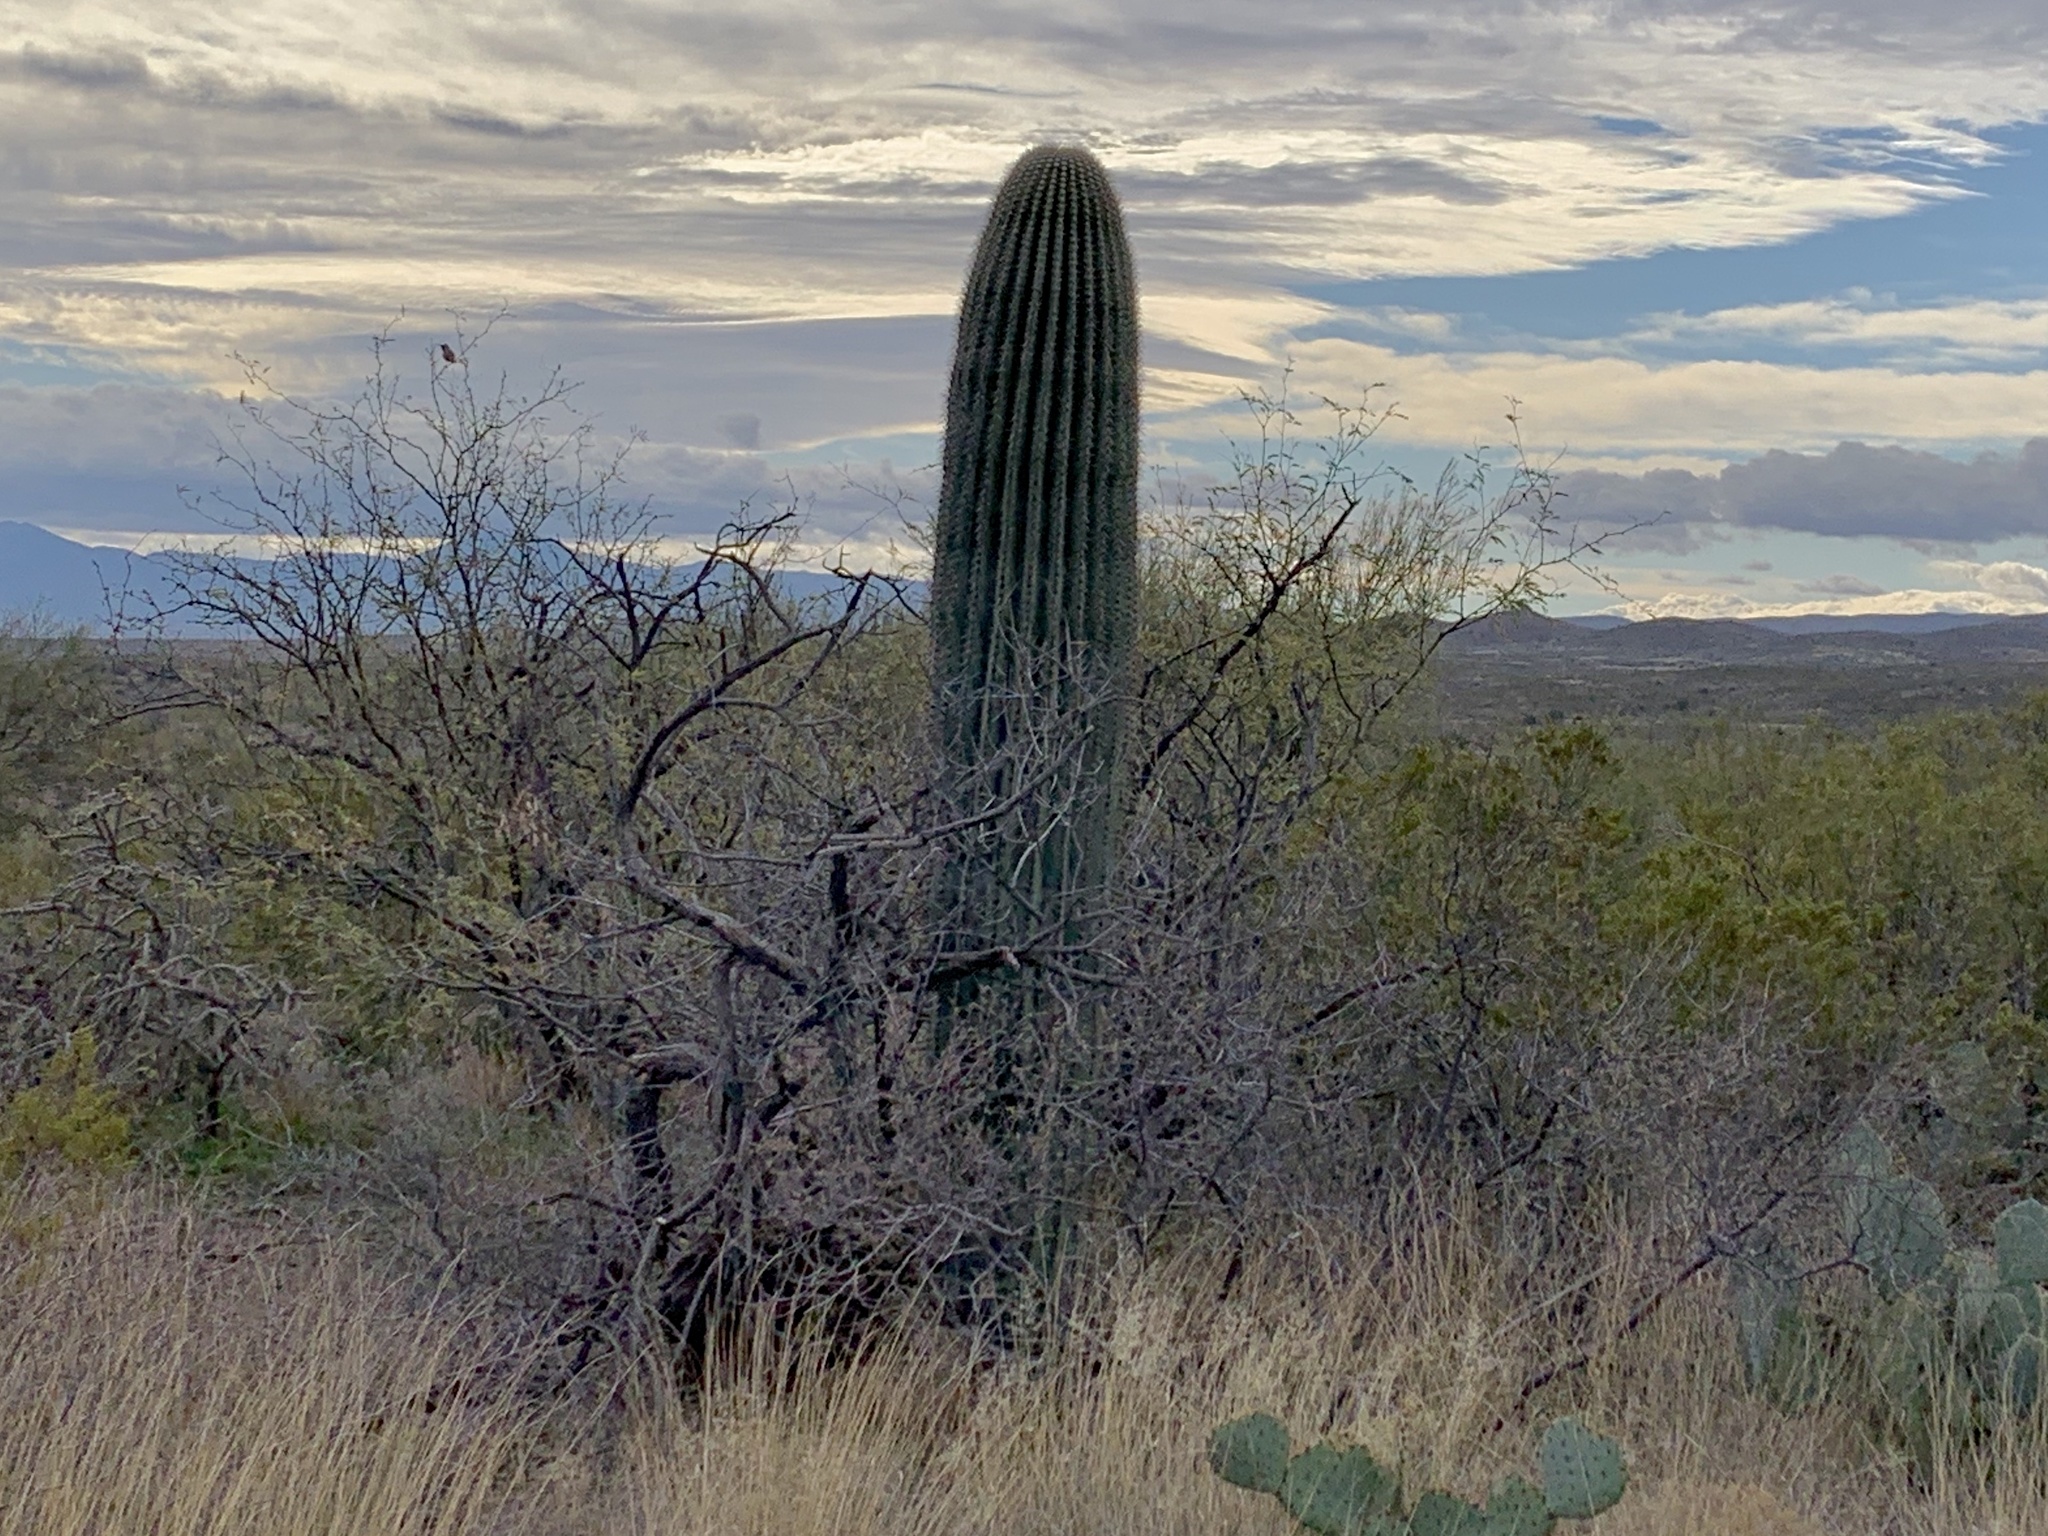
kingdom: Plantae
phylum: Tracheophyta
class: Magnoliopsida
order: Caryophyllales
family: Cactaceae
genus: Carnegiea
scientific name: Carnegiea gigantea
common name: Saguaro
